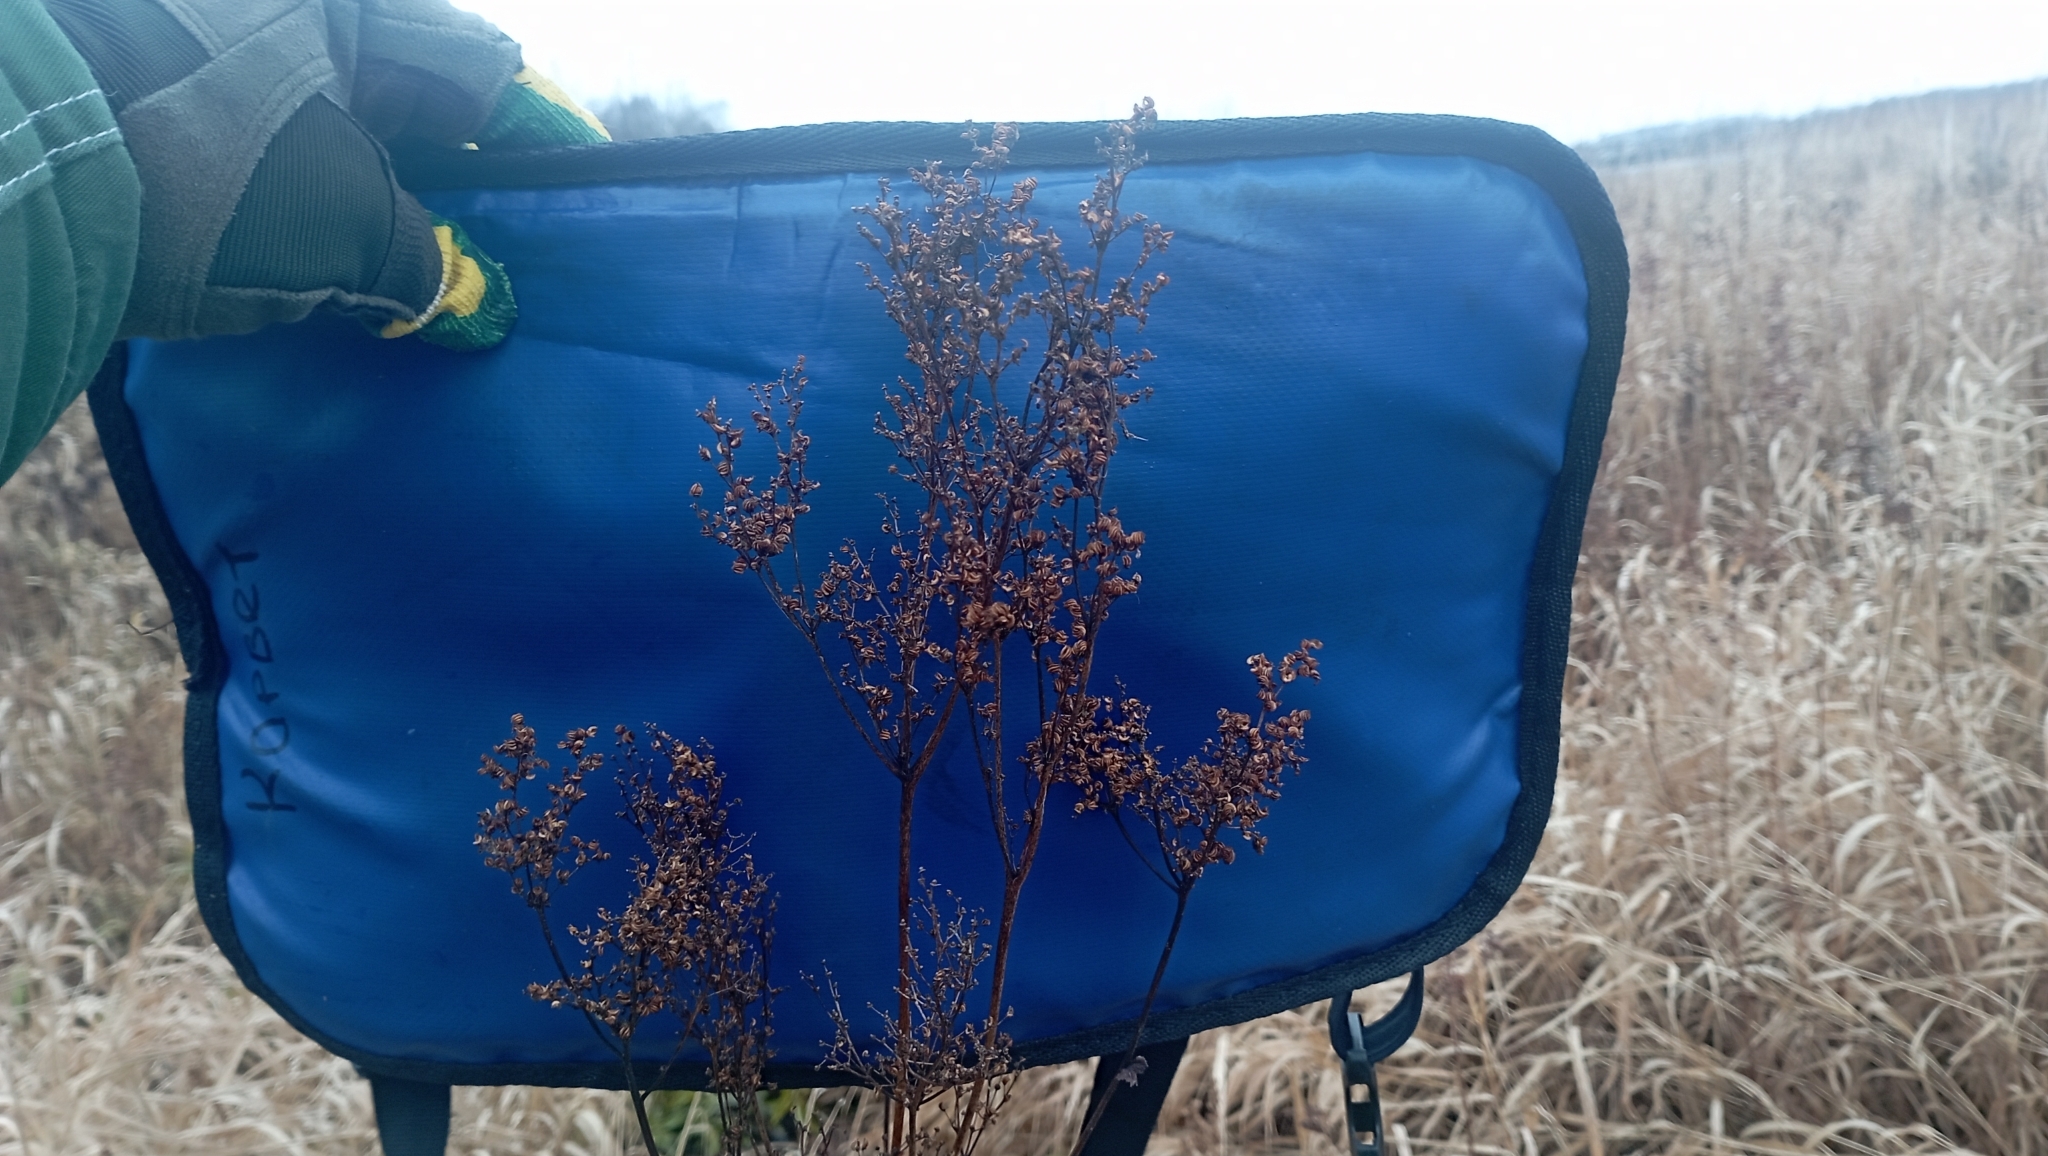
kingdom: Plantae
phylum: Tracheophyta
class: Magnoliopsida
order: Rosales
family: Rosaceae
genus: Filipendula
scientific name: Filipendula ulmaria
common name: Meadowsweet
